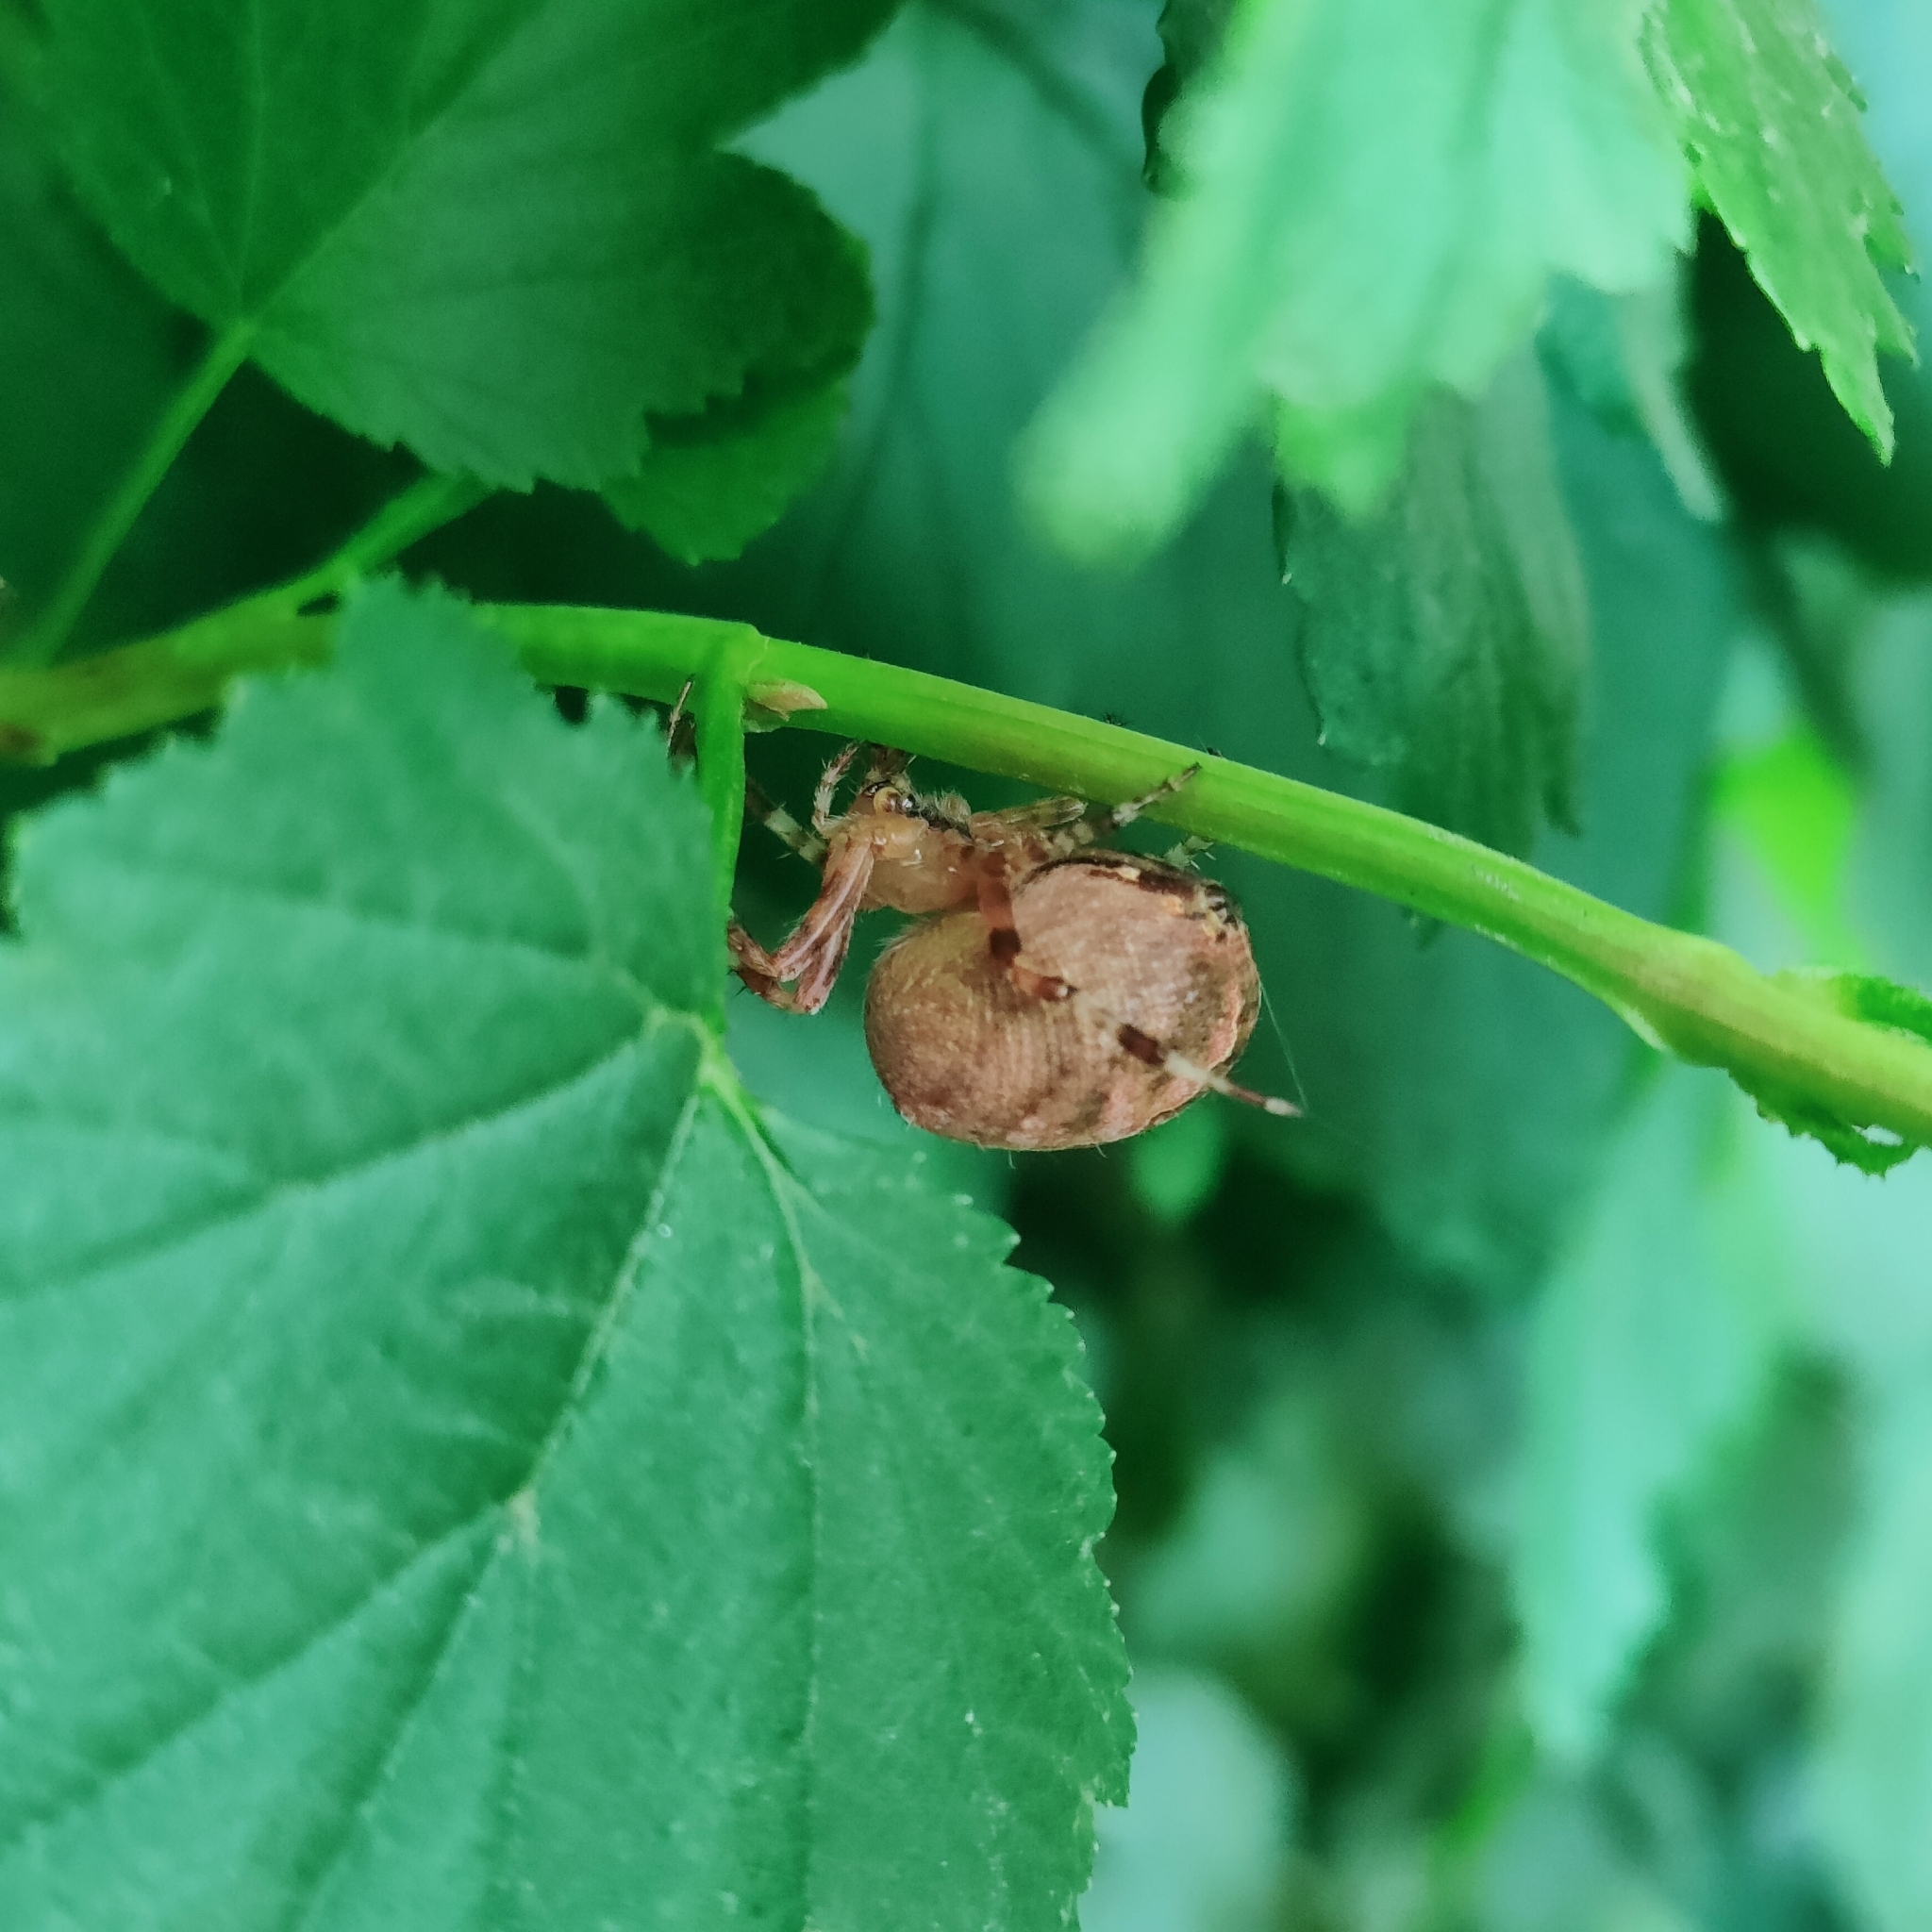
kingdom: Animalia
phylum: Arthropoda
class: Arachnida
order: Araneae
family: Araneidae
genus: Araneus
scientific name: Araneus diadematus
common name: Cross orbweaver
